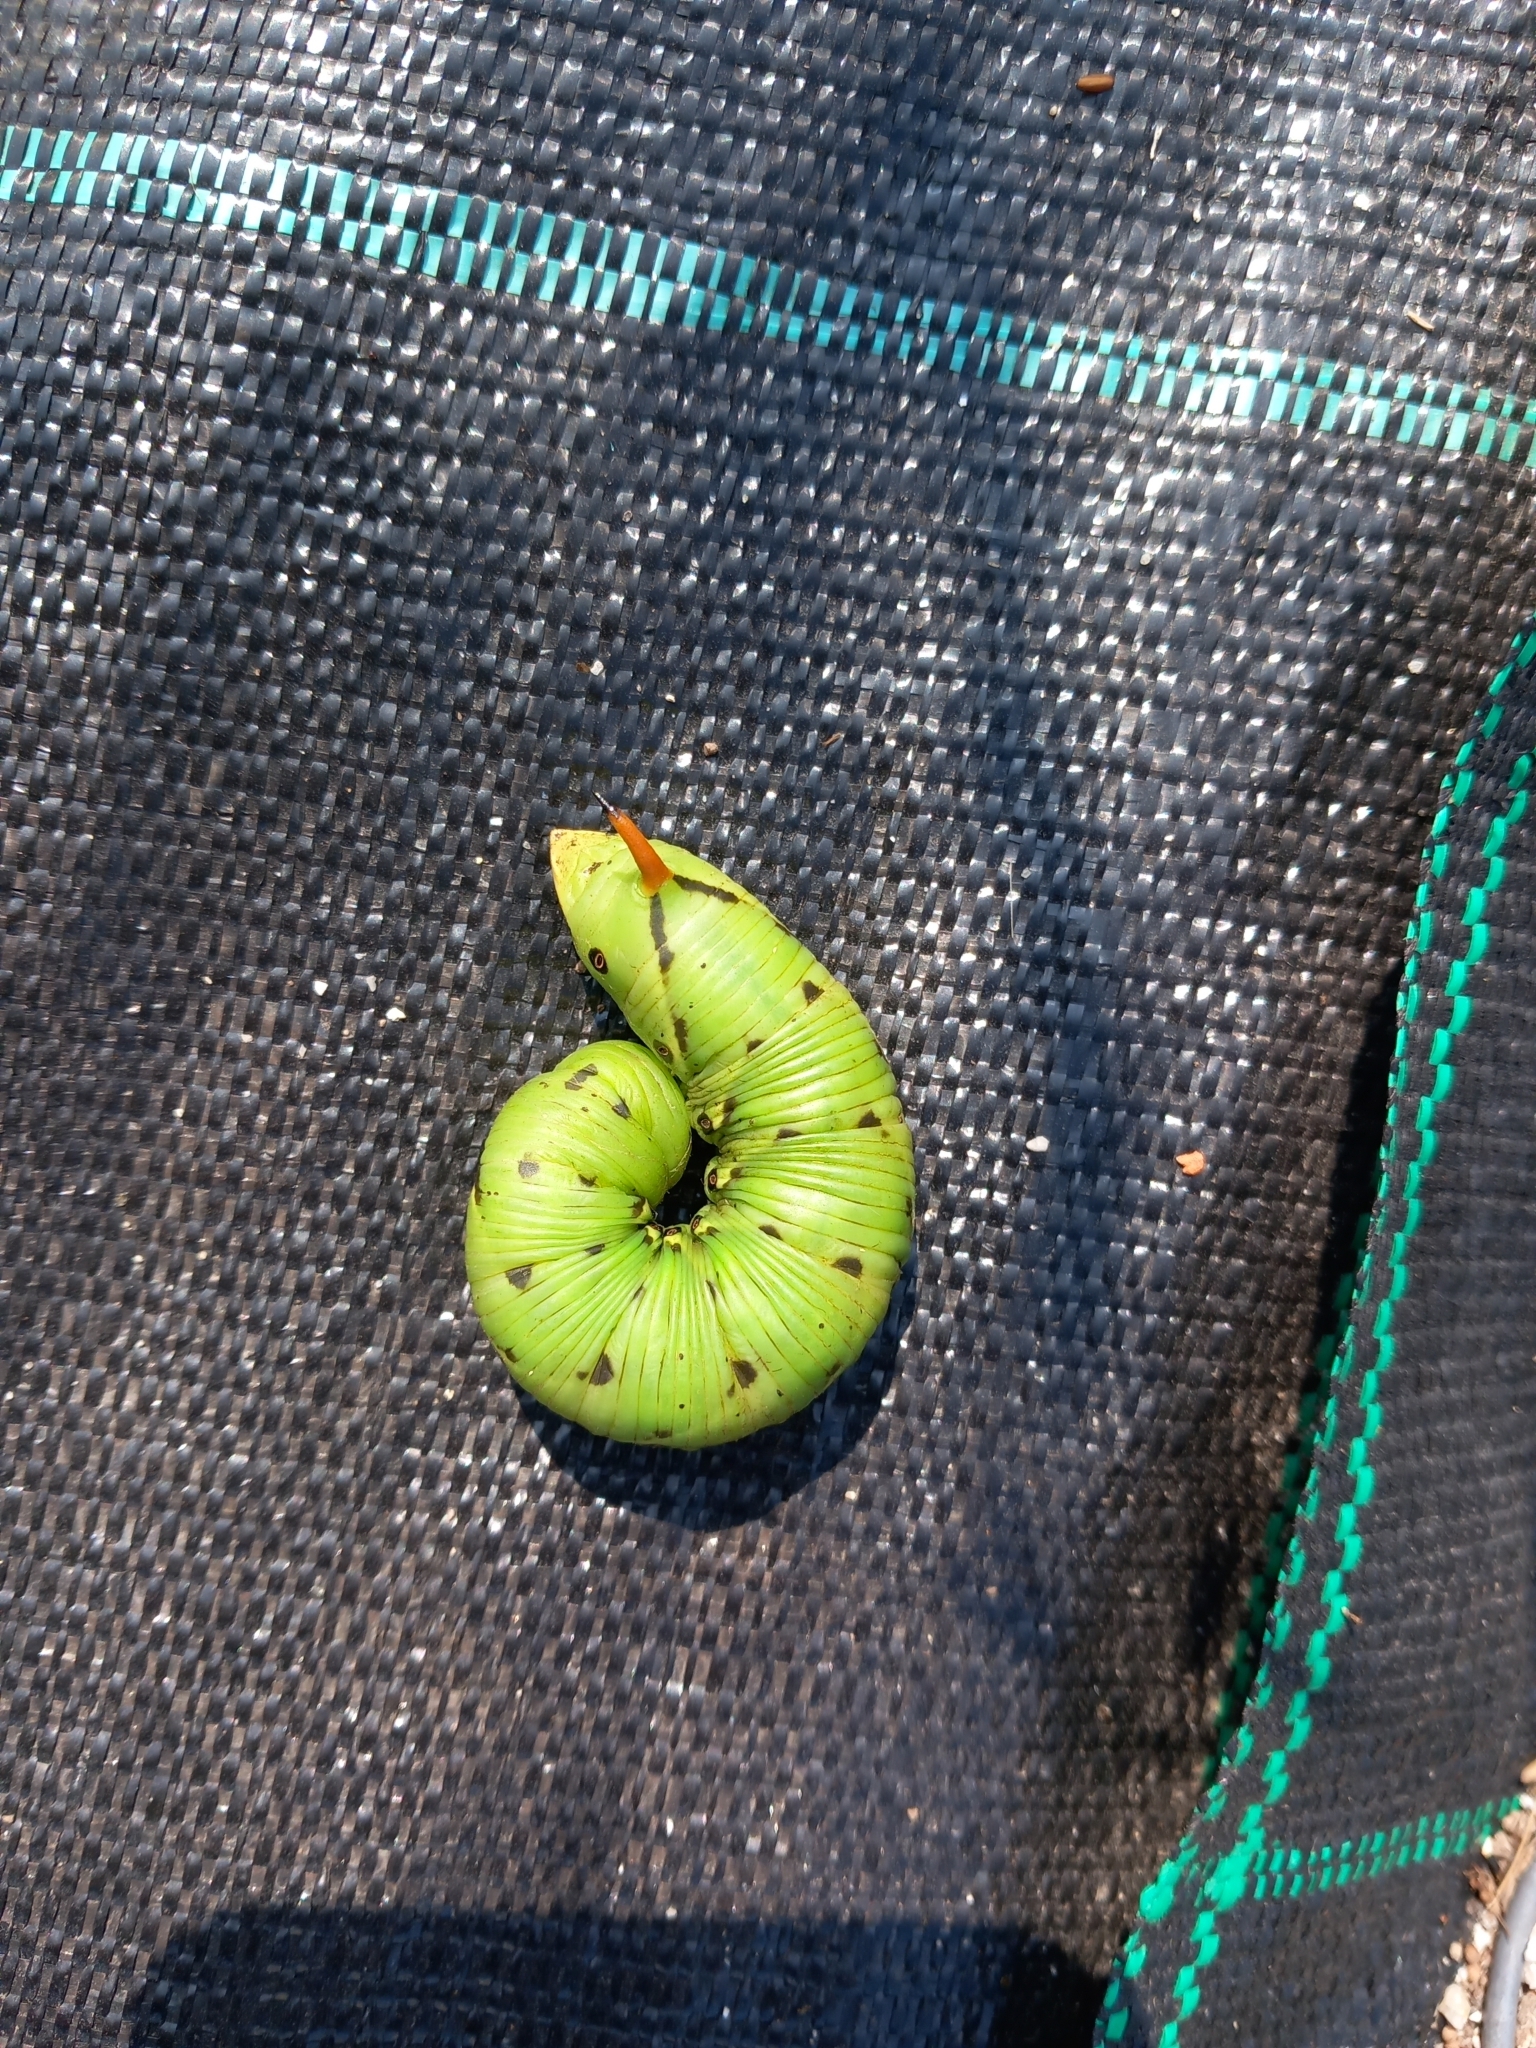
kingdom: Animalia
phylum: Arthropoda
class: Insecta
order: Lepidoptera
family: Sphingidae
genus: Agrius
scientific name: Agrius convolvuli
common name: Convolvulus hawkmoth
